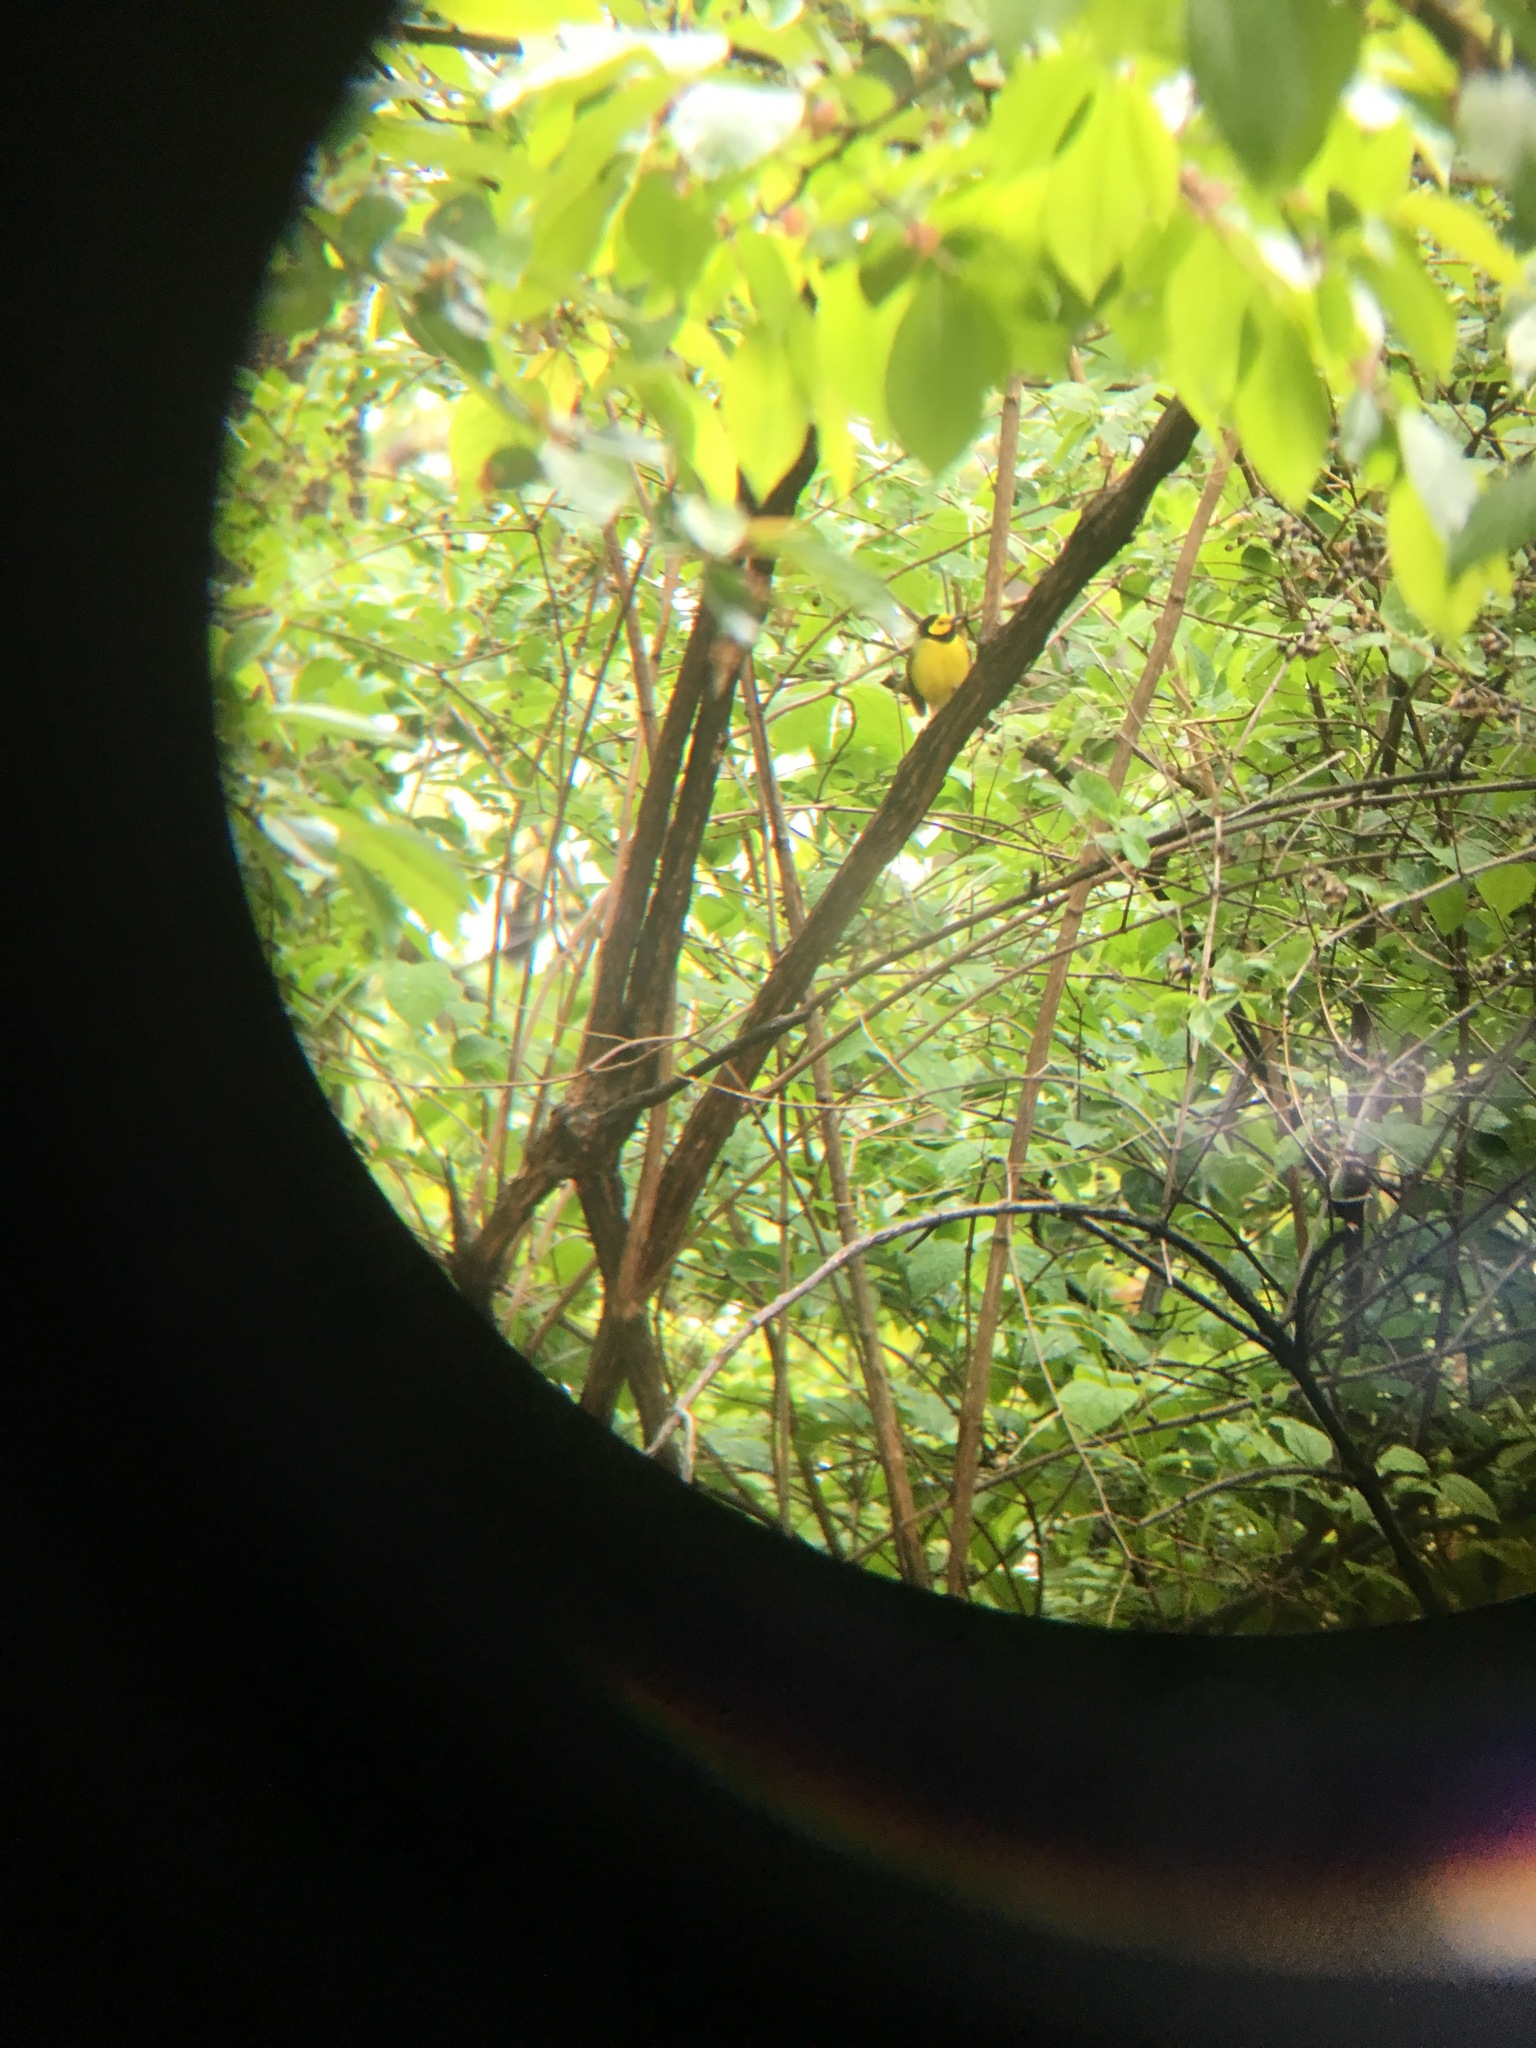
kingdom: Animalia
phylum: Chordata
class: Aves
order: Passeriformes
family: Parulidae
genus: Setophaga
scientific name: Setophaga citrina
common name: Hooded warbler
